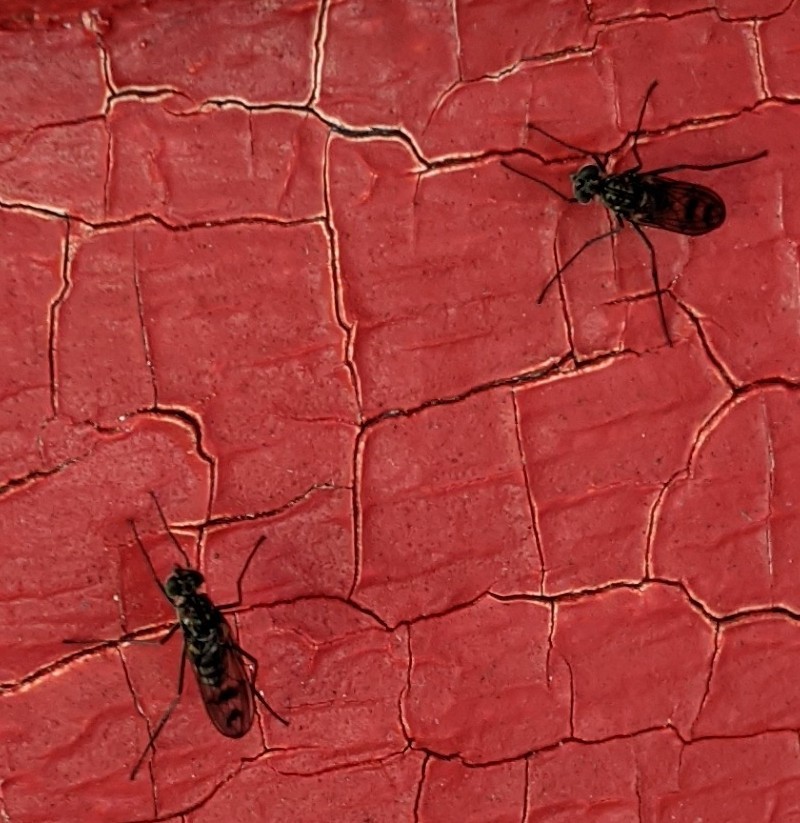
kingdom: Animalia
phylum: Arthropoda
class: Insecta
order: Diptera
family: Dolichopodidae
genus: Liancalus
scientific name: Liancalus genualis
